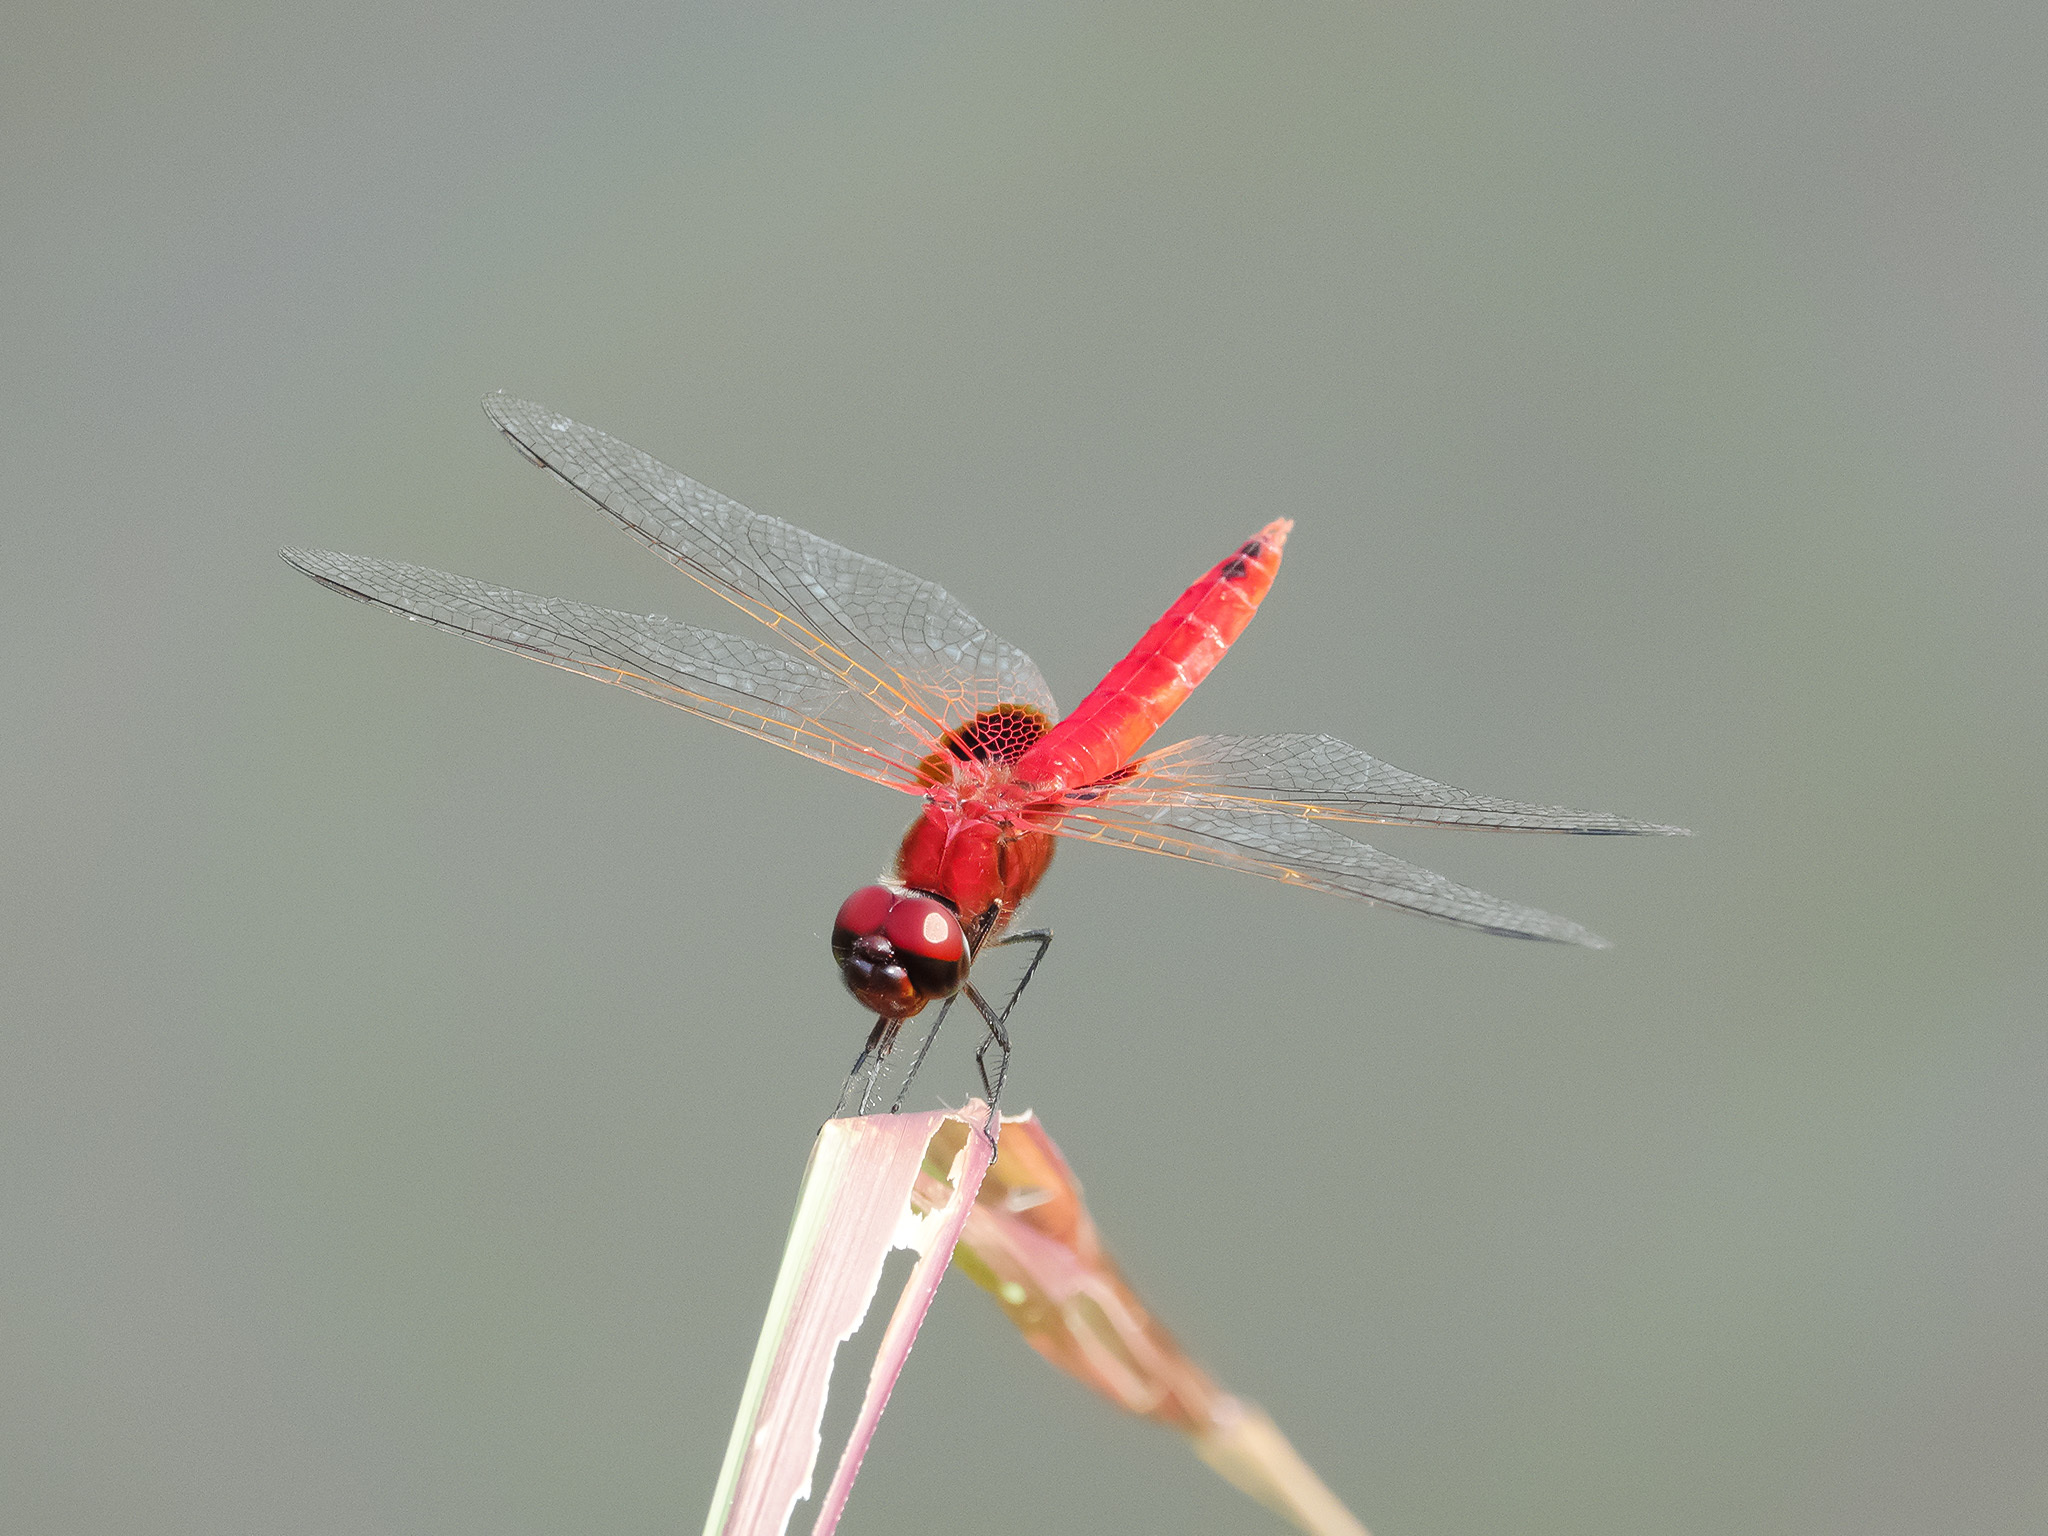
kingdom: Animalia
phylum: Arthropoda
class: Insecta
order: Odonata
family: Libellulidae
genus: Urothemis
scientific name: Urothemis signata
